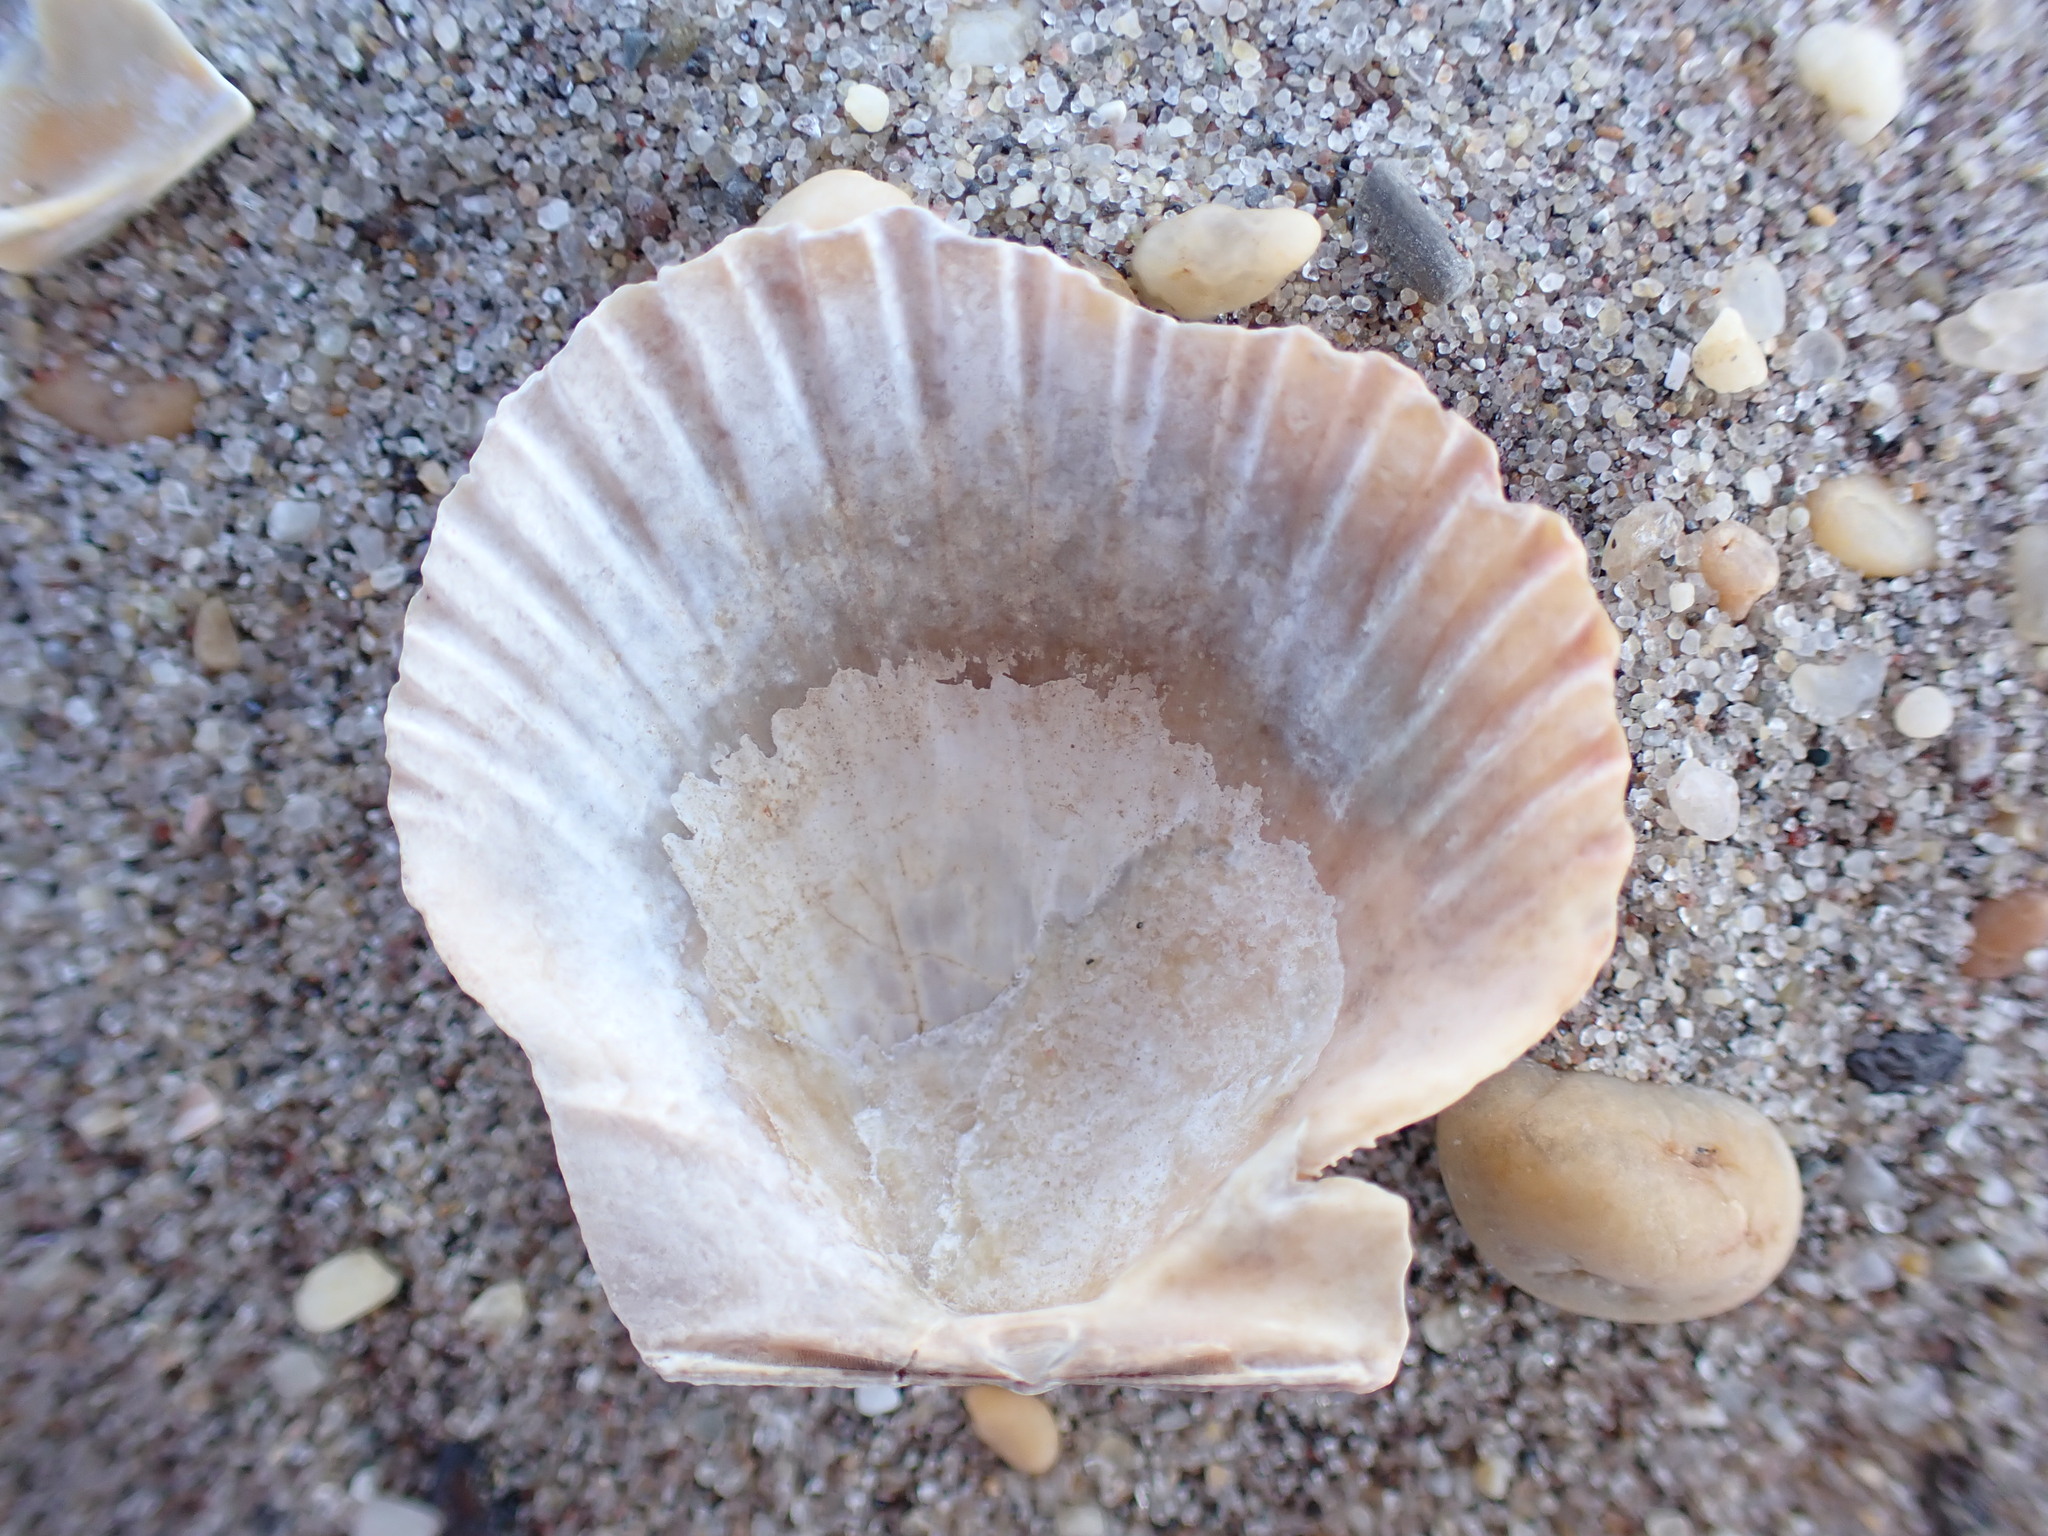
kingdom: Animalia
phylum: Mollusca
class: Bivalvia
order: Pectinida
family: Pectinidae
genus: Argopecten
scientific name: Argopecten irradians
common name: Atlantic bay scallop
